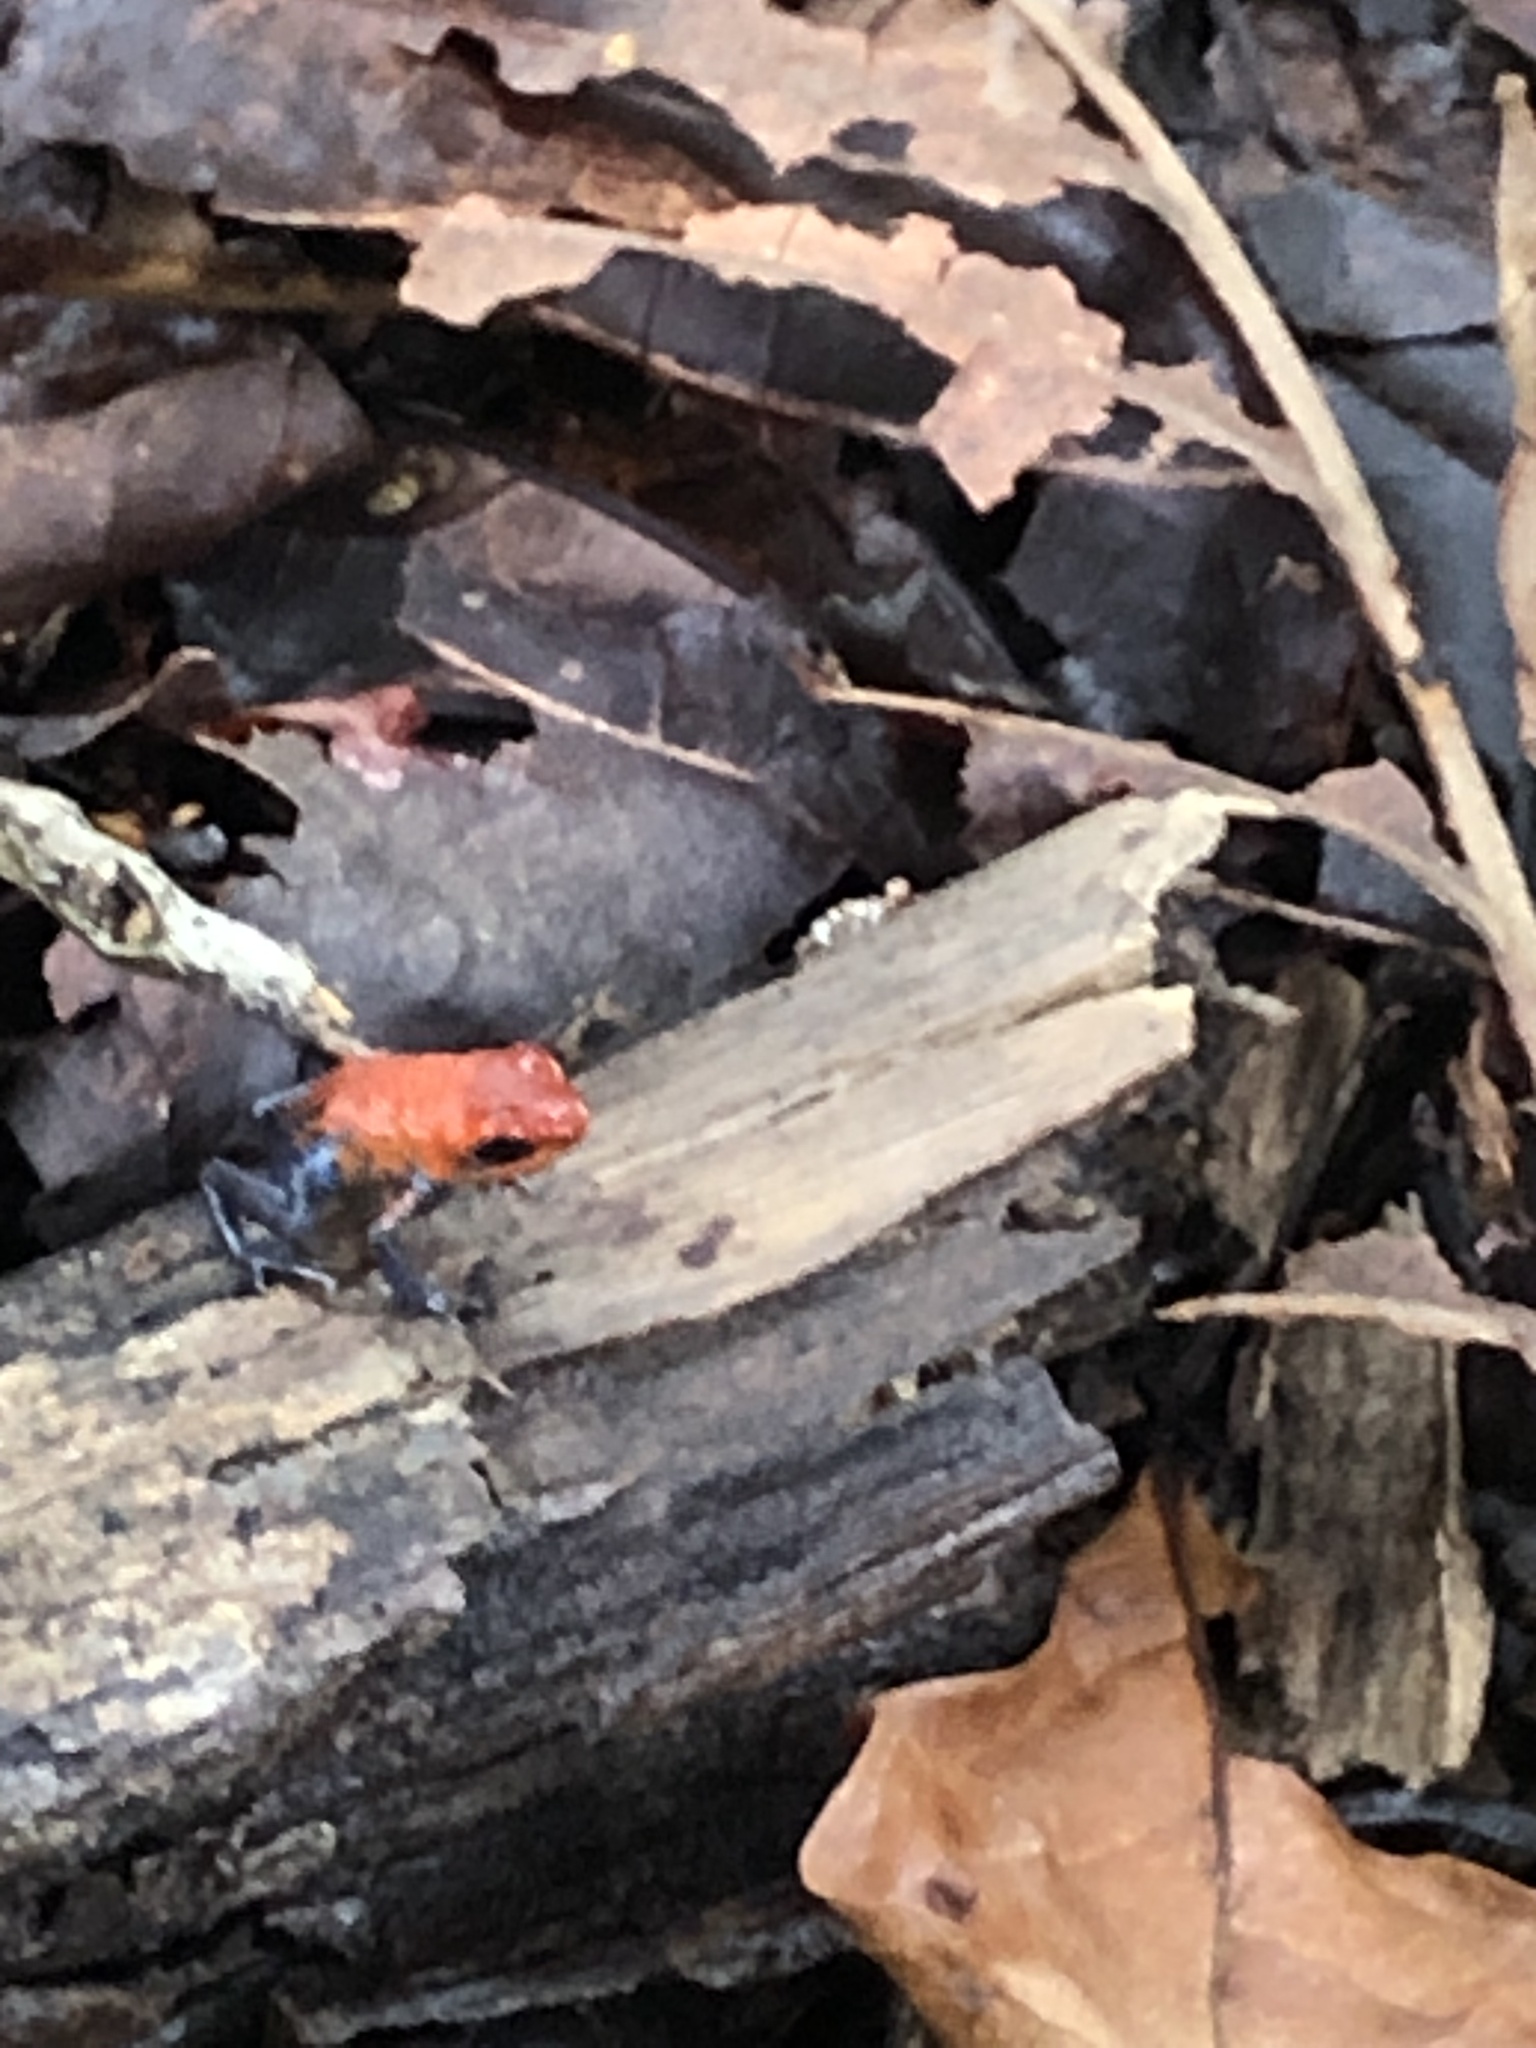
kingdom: Animalia
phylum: Chordata
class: Amphibia
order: Anura
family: Dendrobatidae
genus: Oophaga
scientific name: Oophaga pumilio
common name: Flaming poison frog
